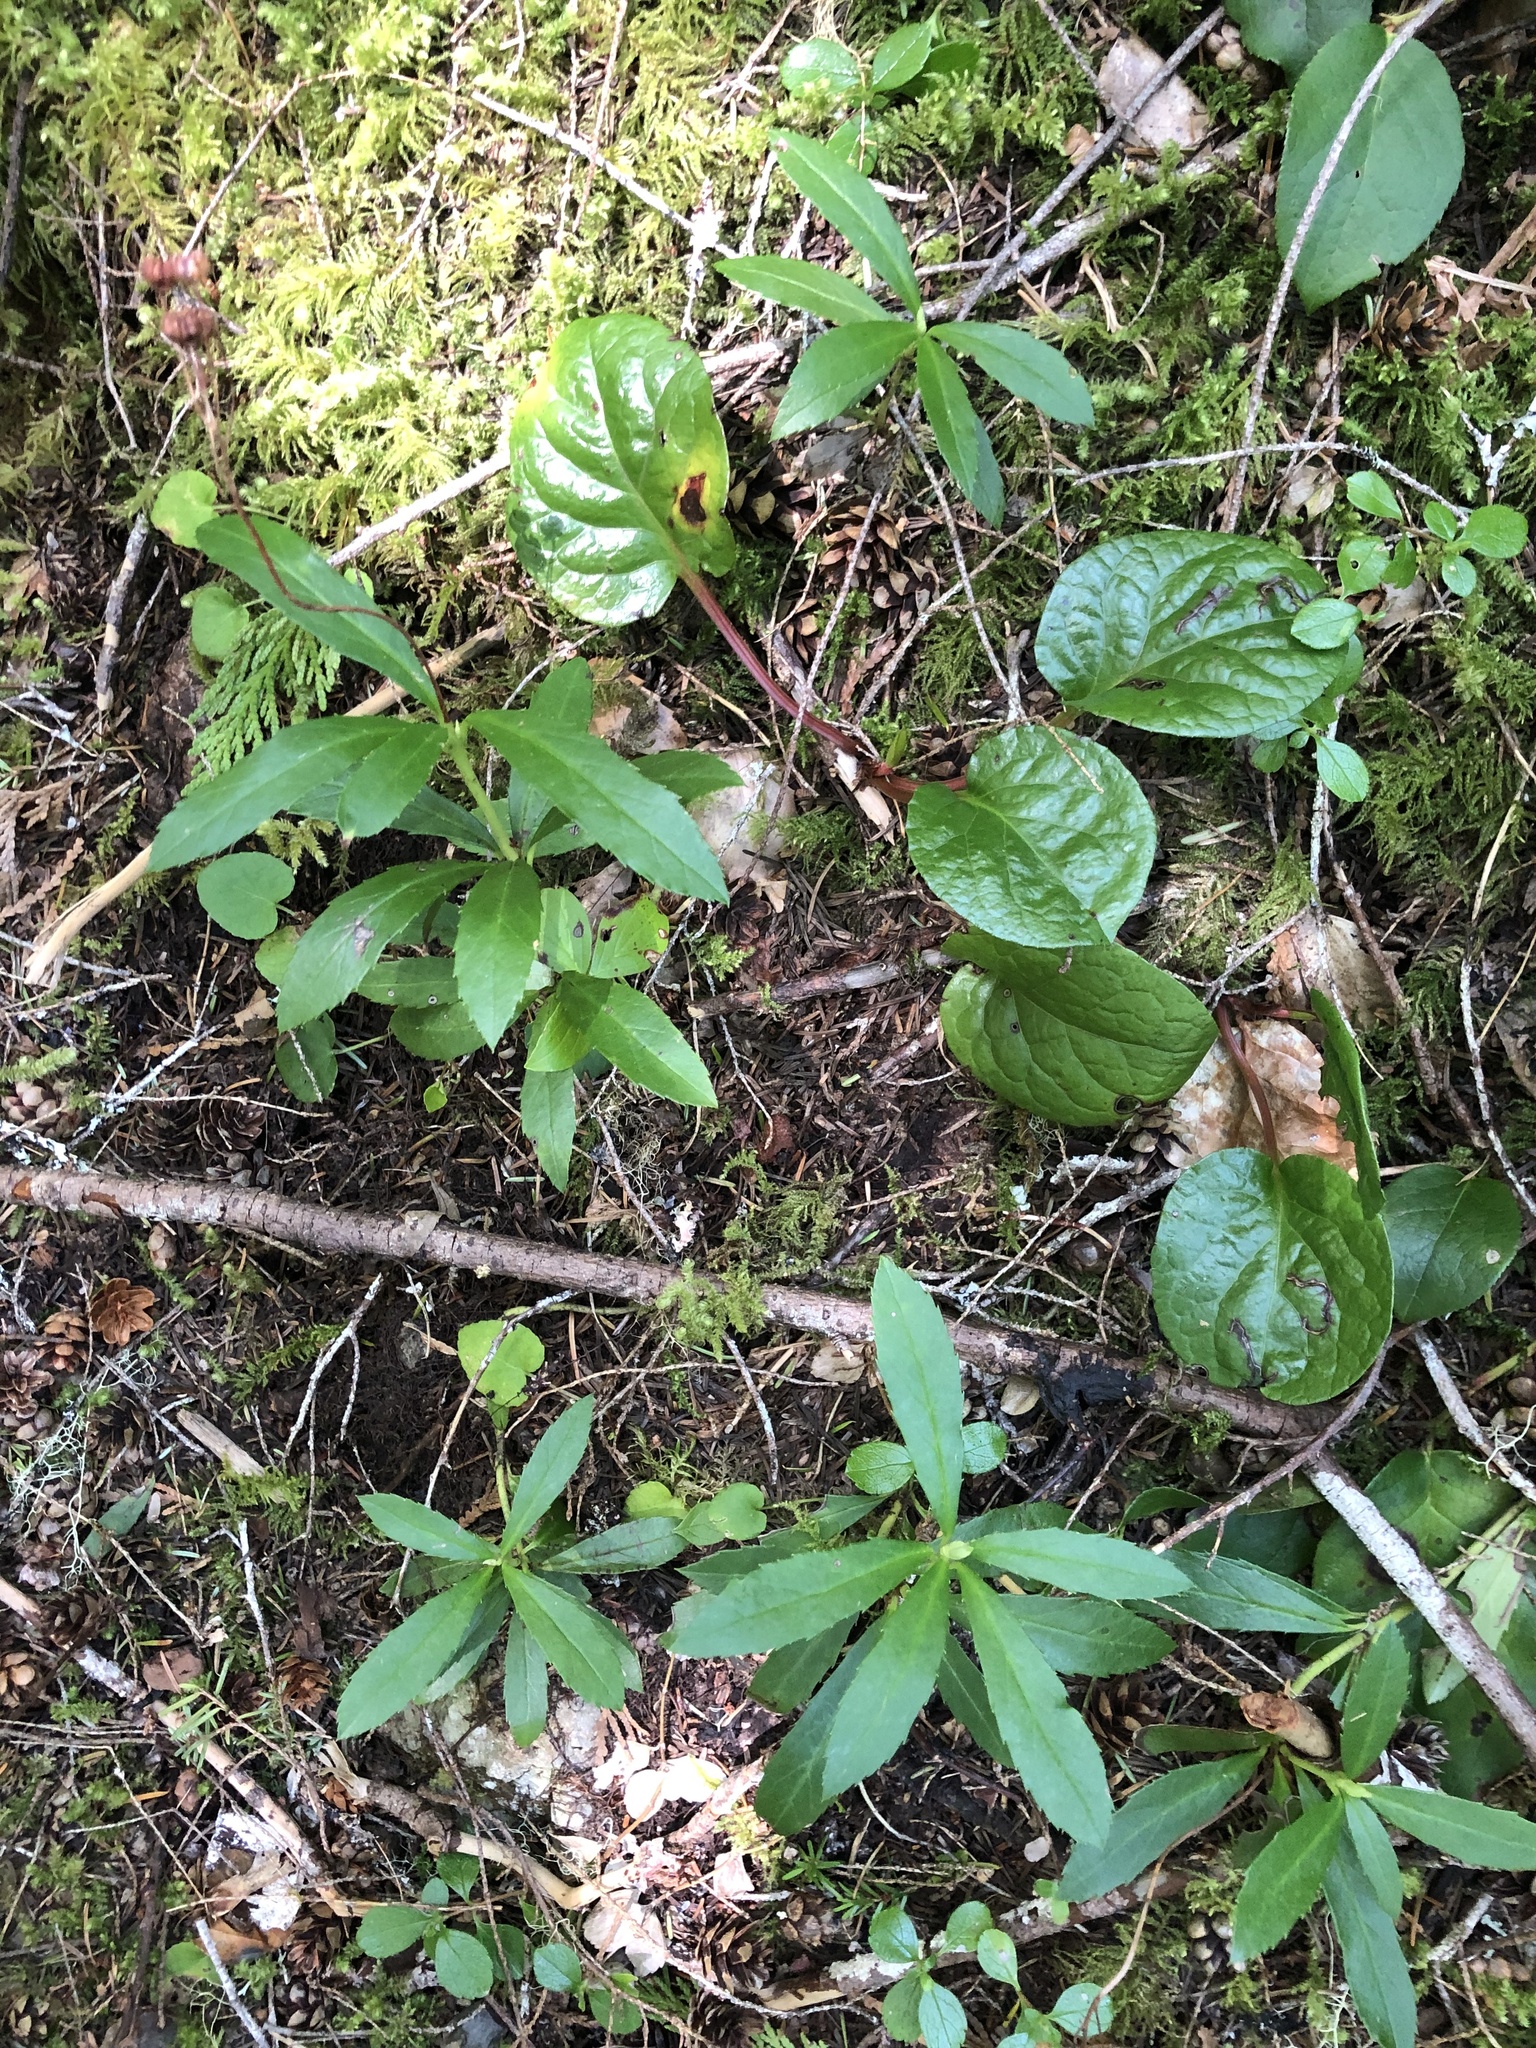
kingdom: Plantae
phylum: Tracheophyta
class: Magnoliopsida
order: Ericales
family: Ericaceae
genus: Chimaphila
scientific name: Chimaphila umbellata
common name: Pipsissewa
